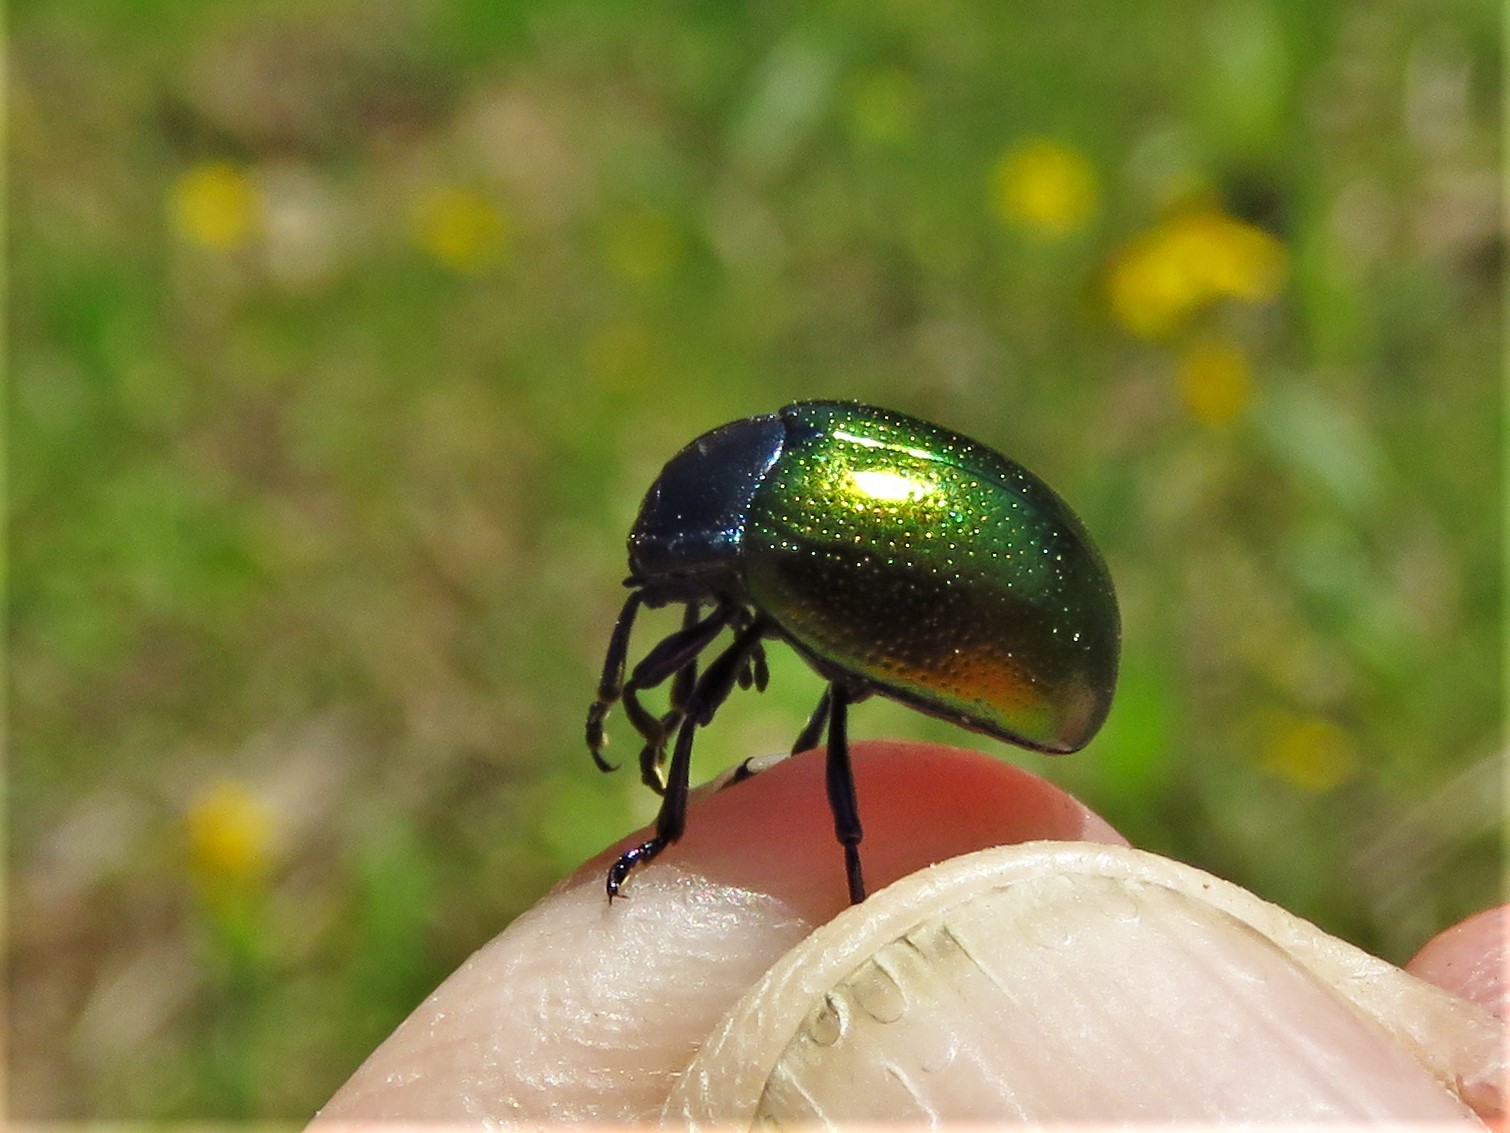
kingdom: Animalia
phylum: Arthropoda
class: Insecta
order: Coleoptera
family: Chrysomelidae
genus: Chrysolina
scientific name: Chrysolina auripennis
